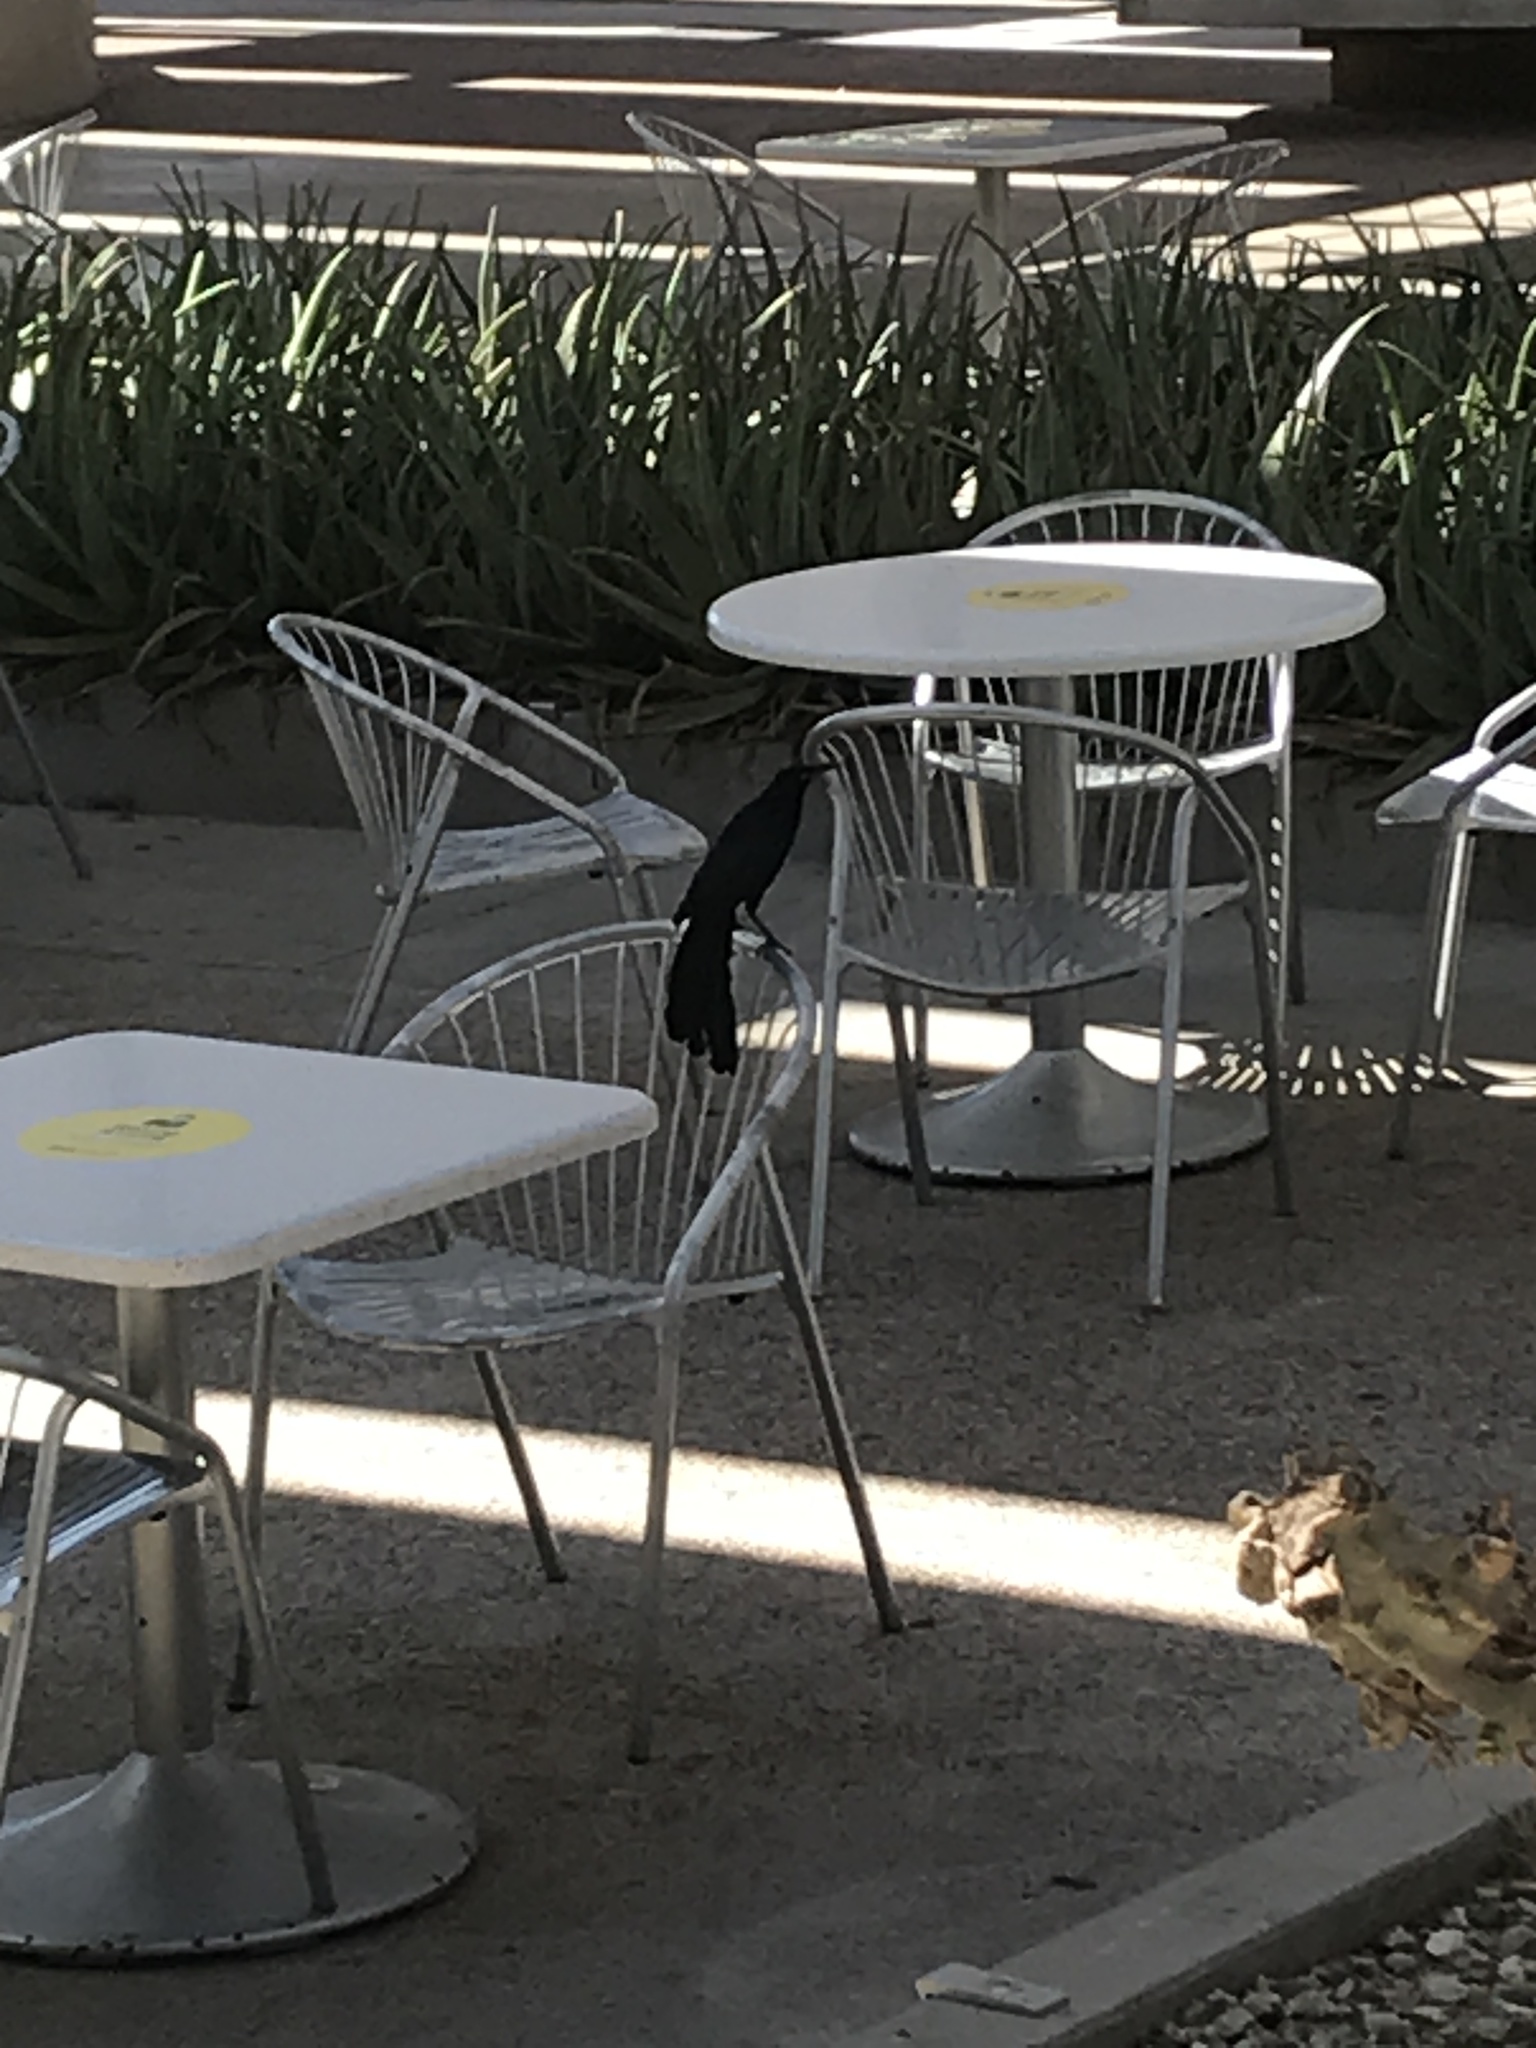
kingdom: Animalia
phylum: Chordata
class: Aves
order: Passeriformes
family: Icteridae
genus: Quiscalus
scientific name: Quiscalus mexicanus
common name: Great-tailed grackle
